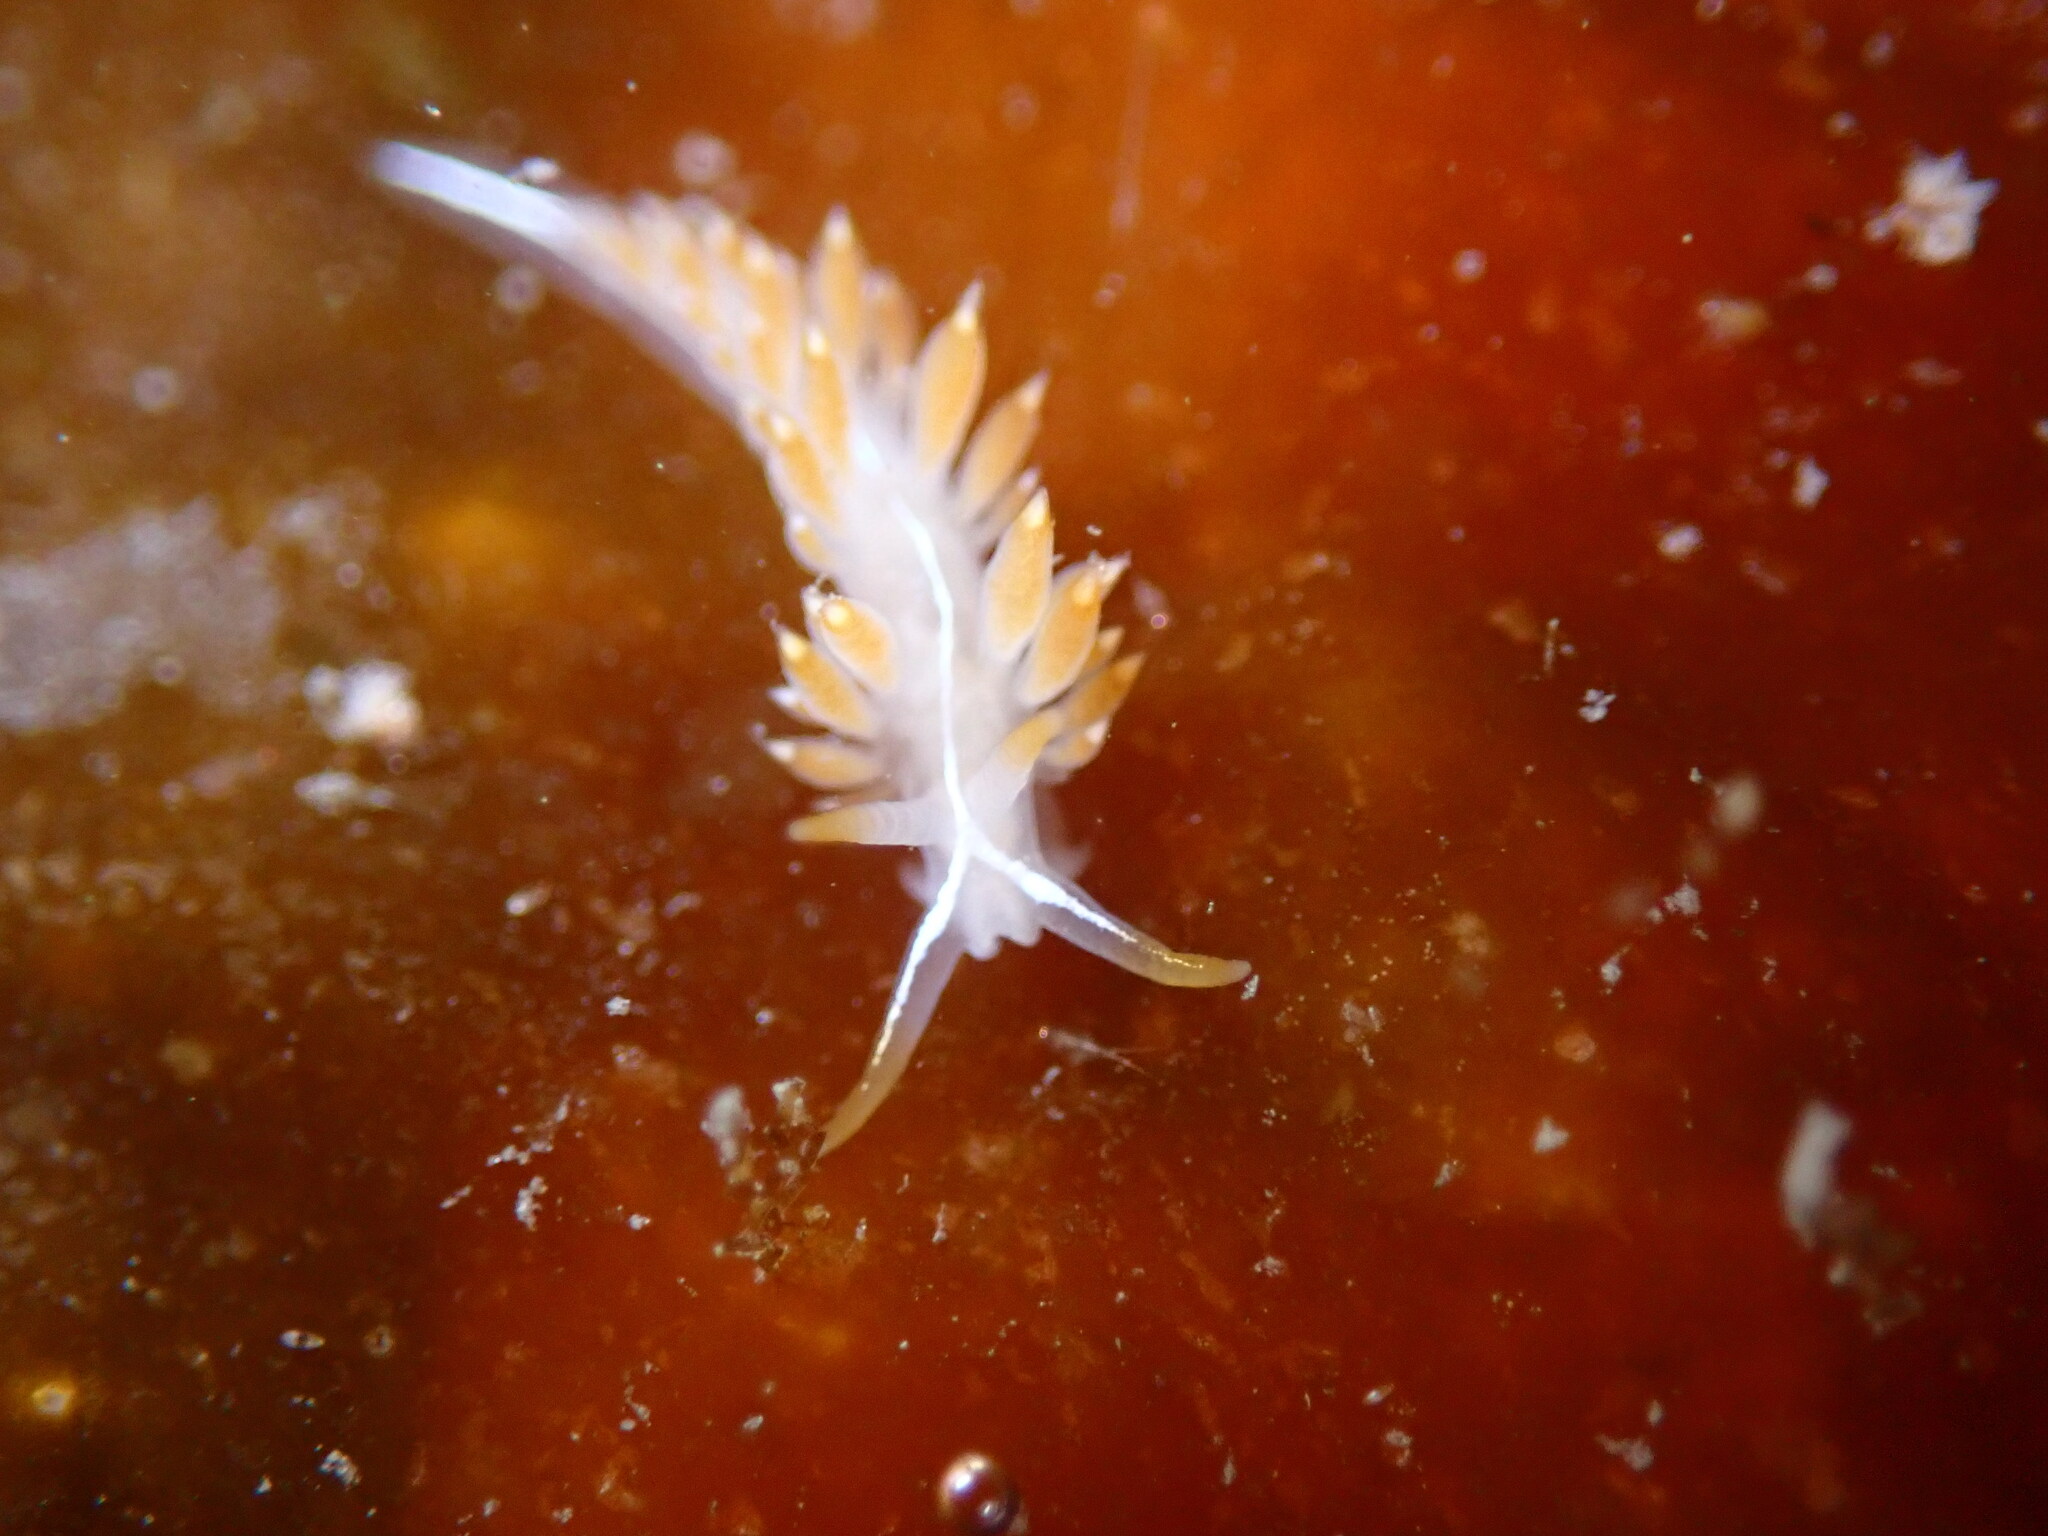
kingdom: Animalia
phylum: Mollusca
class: Gastropoda
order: Nudibranchia
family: Coryphellidae
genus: Coryphella
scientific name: Coryphella trilineata
